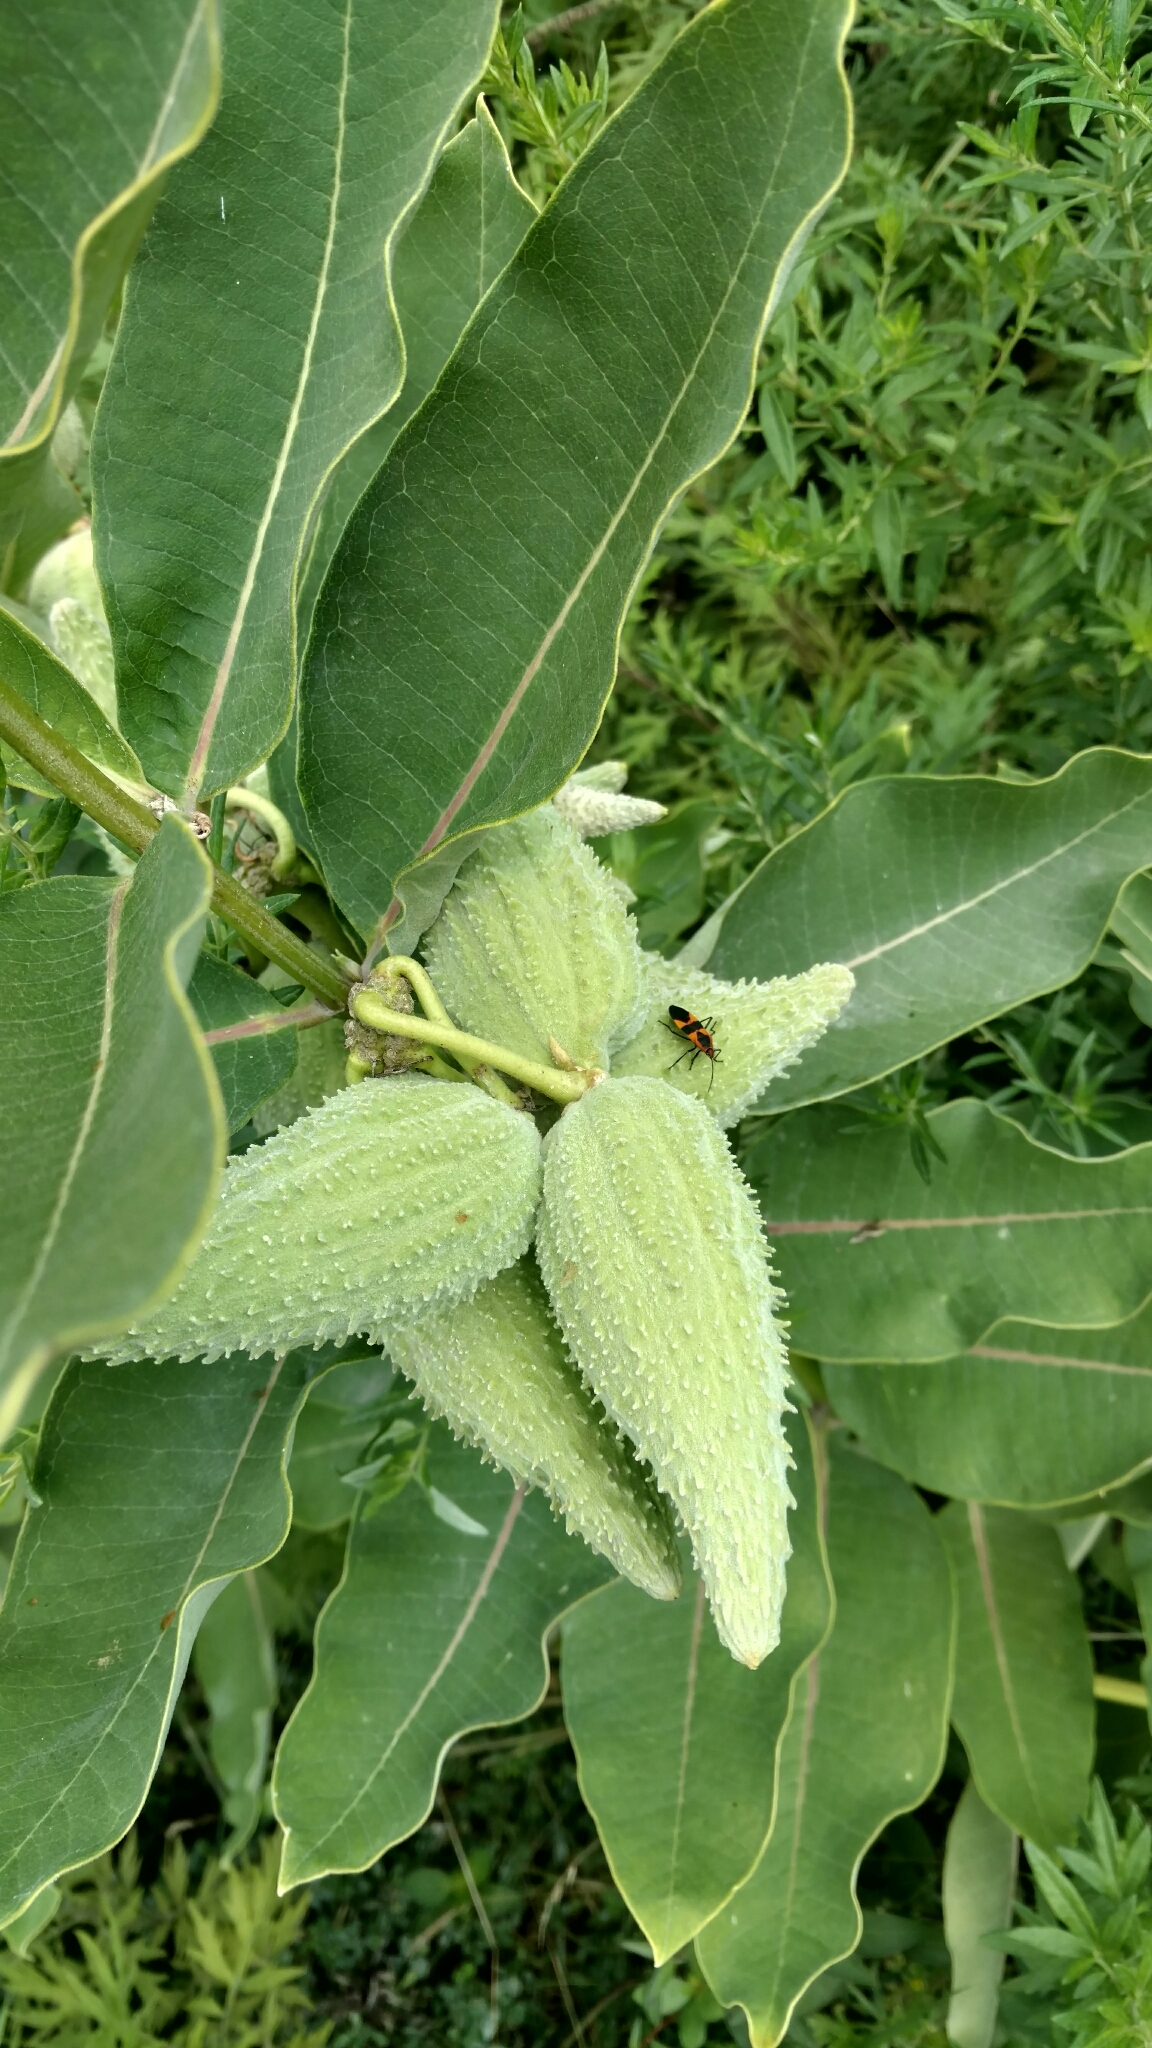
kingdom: Plantae
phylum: Tracheophyta
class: Magnoliopsida
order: Gentianales
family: Apocynaceae
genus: Asclepias
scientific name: Asclepias syriaca
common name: Common milkweed
